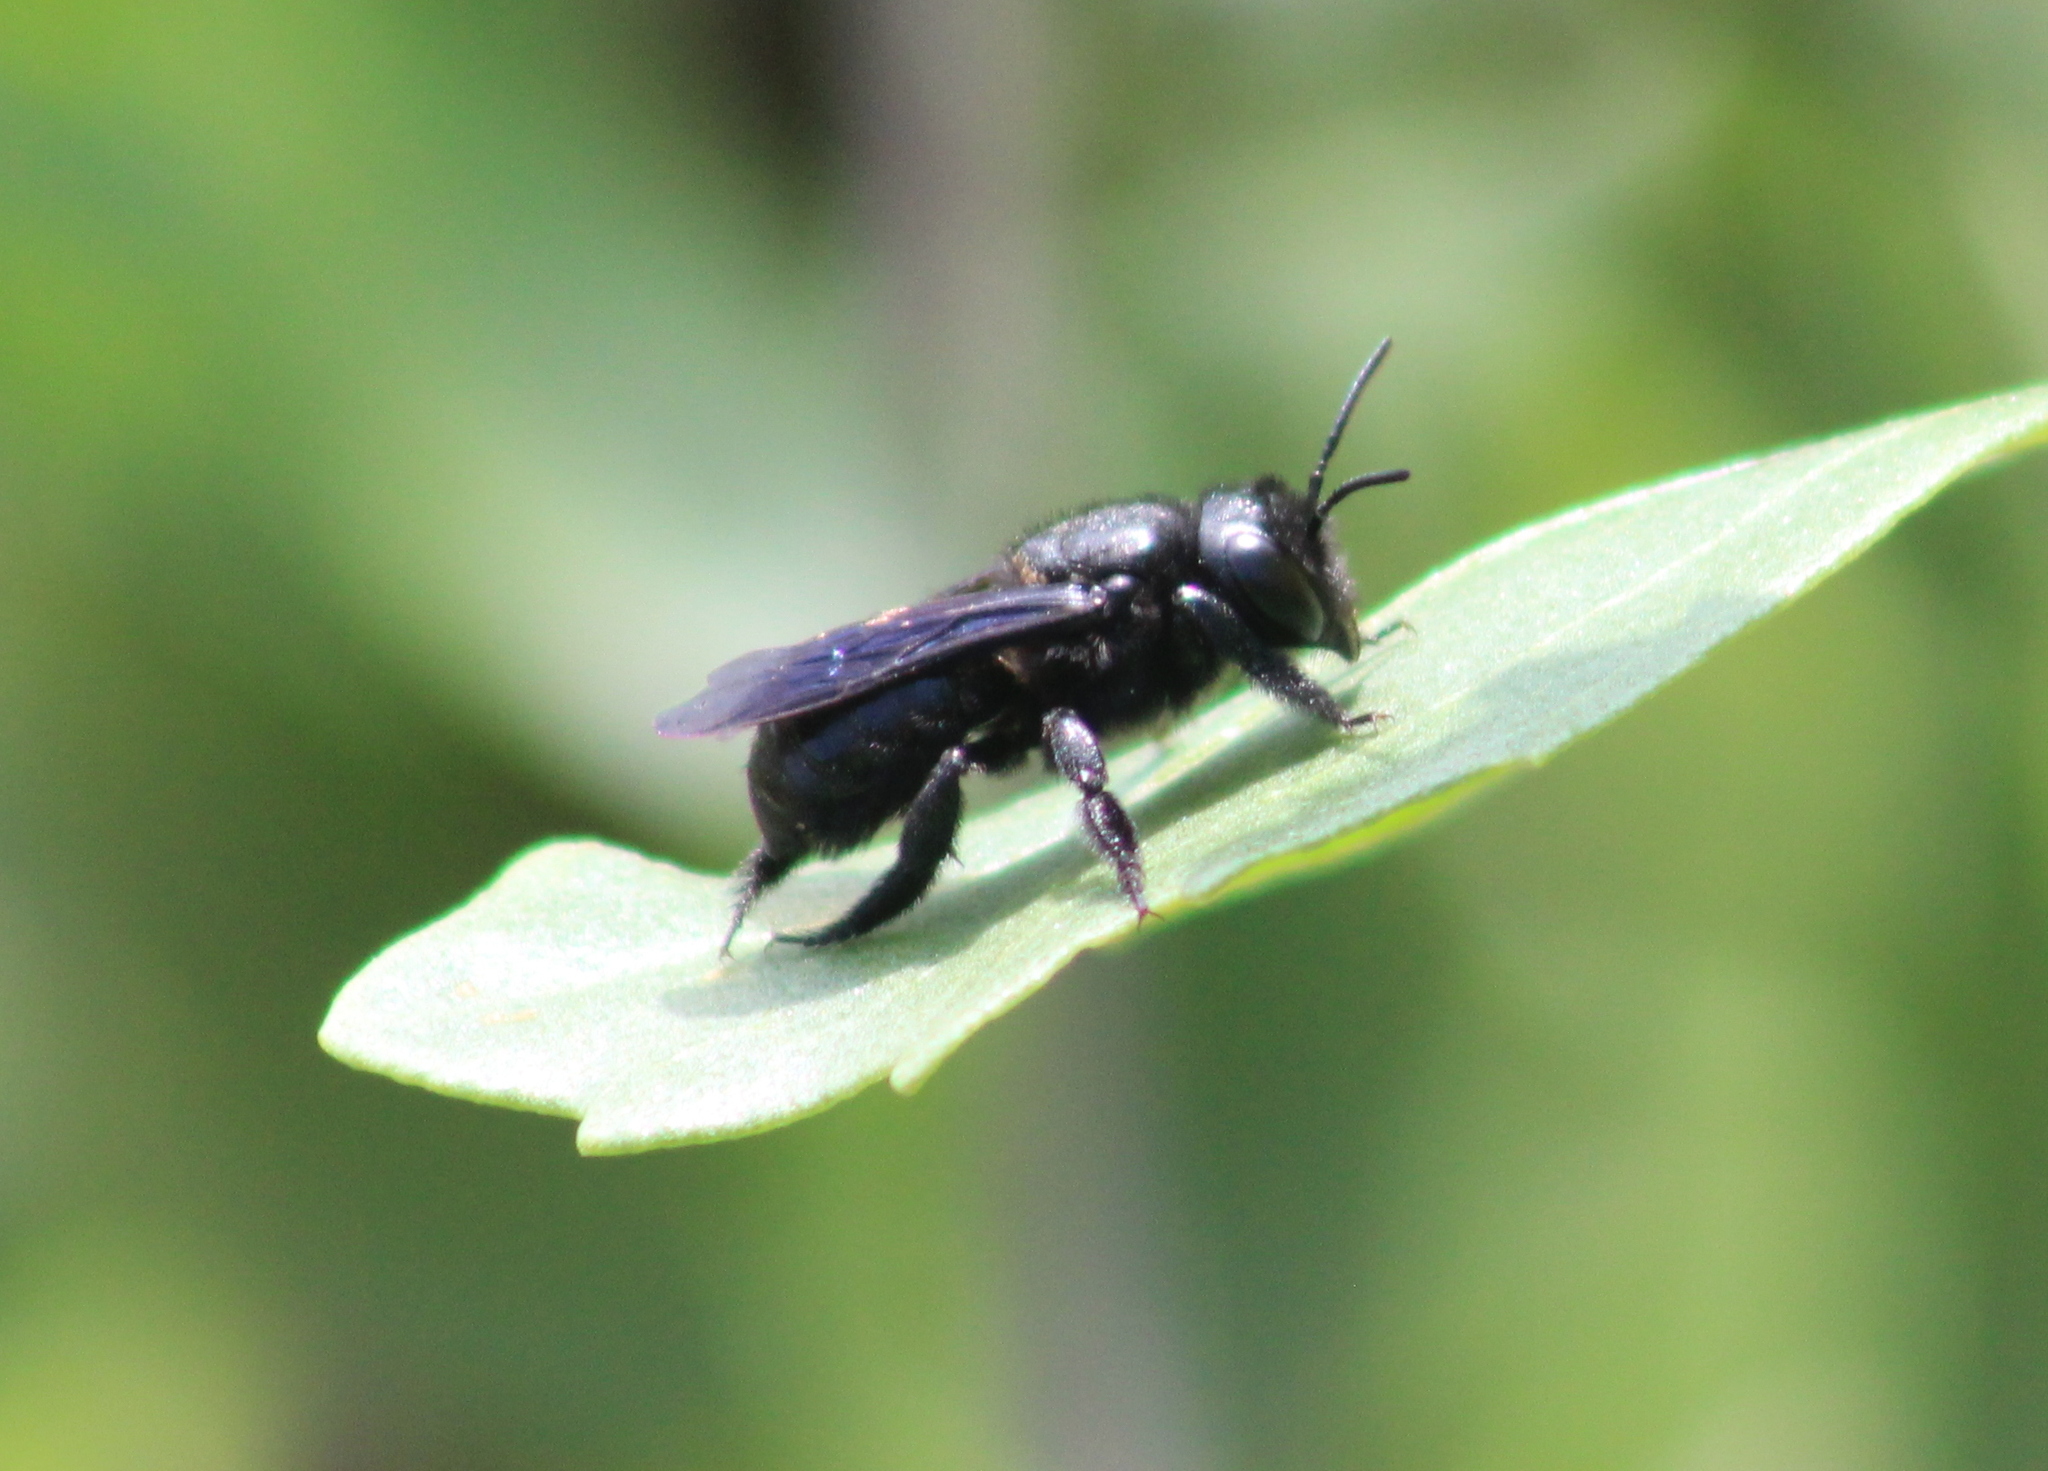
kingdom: Animalia
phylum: Arthropoda
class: Insecta
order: Hymenoptera
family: Megachilidae
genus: Megachile
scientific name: Megachile xylocopoides
